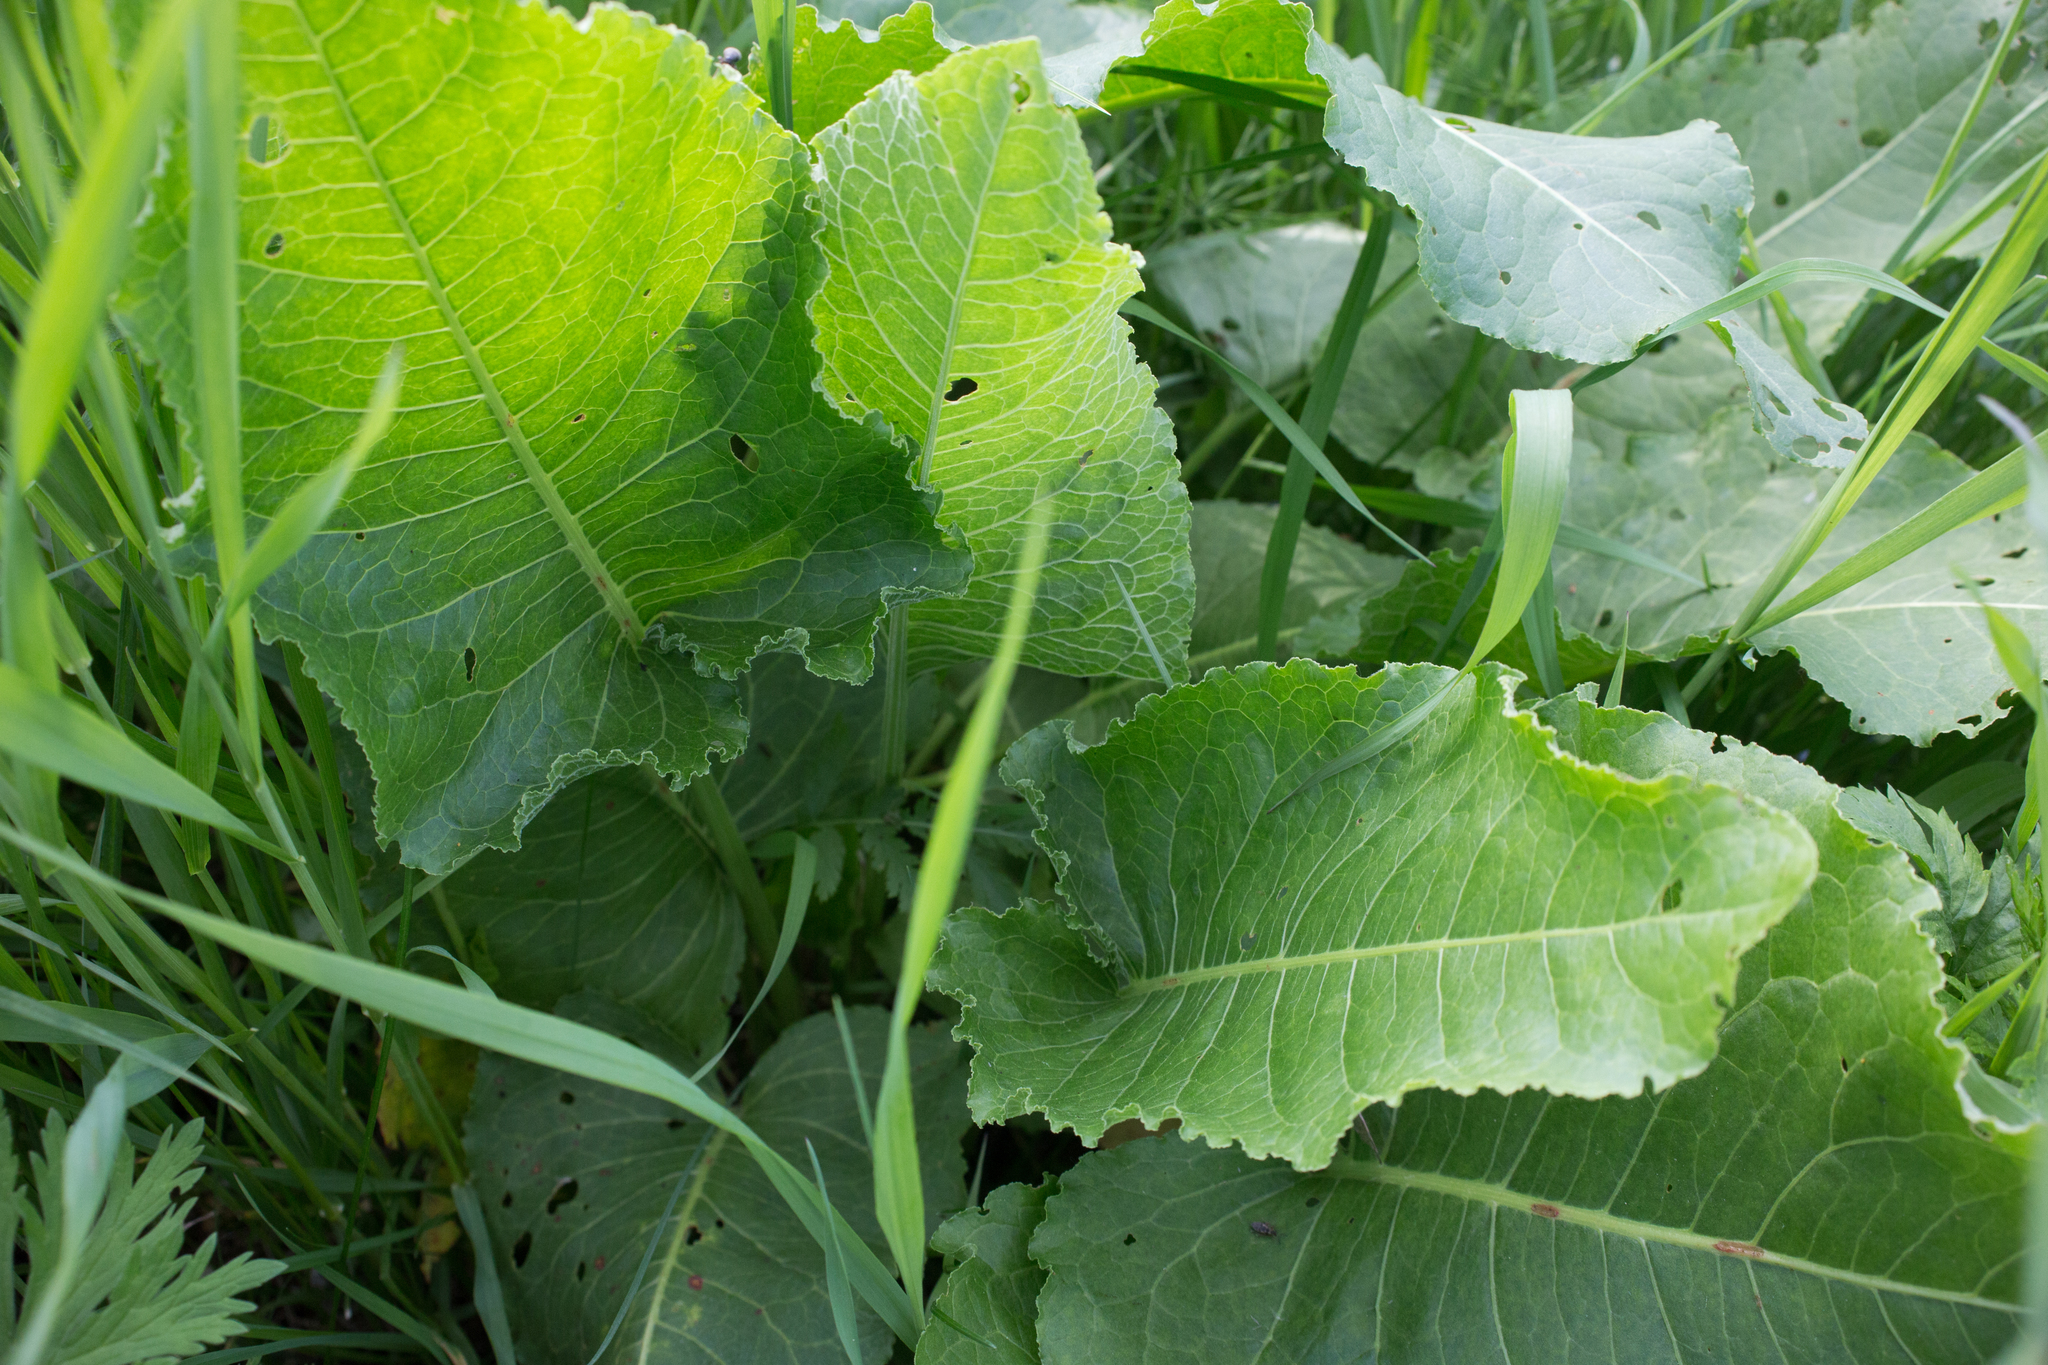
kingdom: Plantae
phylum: Tracheophyta
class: Magnoliopsida
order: Caryophyllales
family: Polygonaceae
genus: Rumex
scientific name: Rumex confertus
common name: Russian dock
